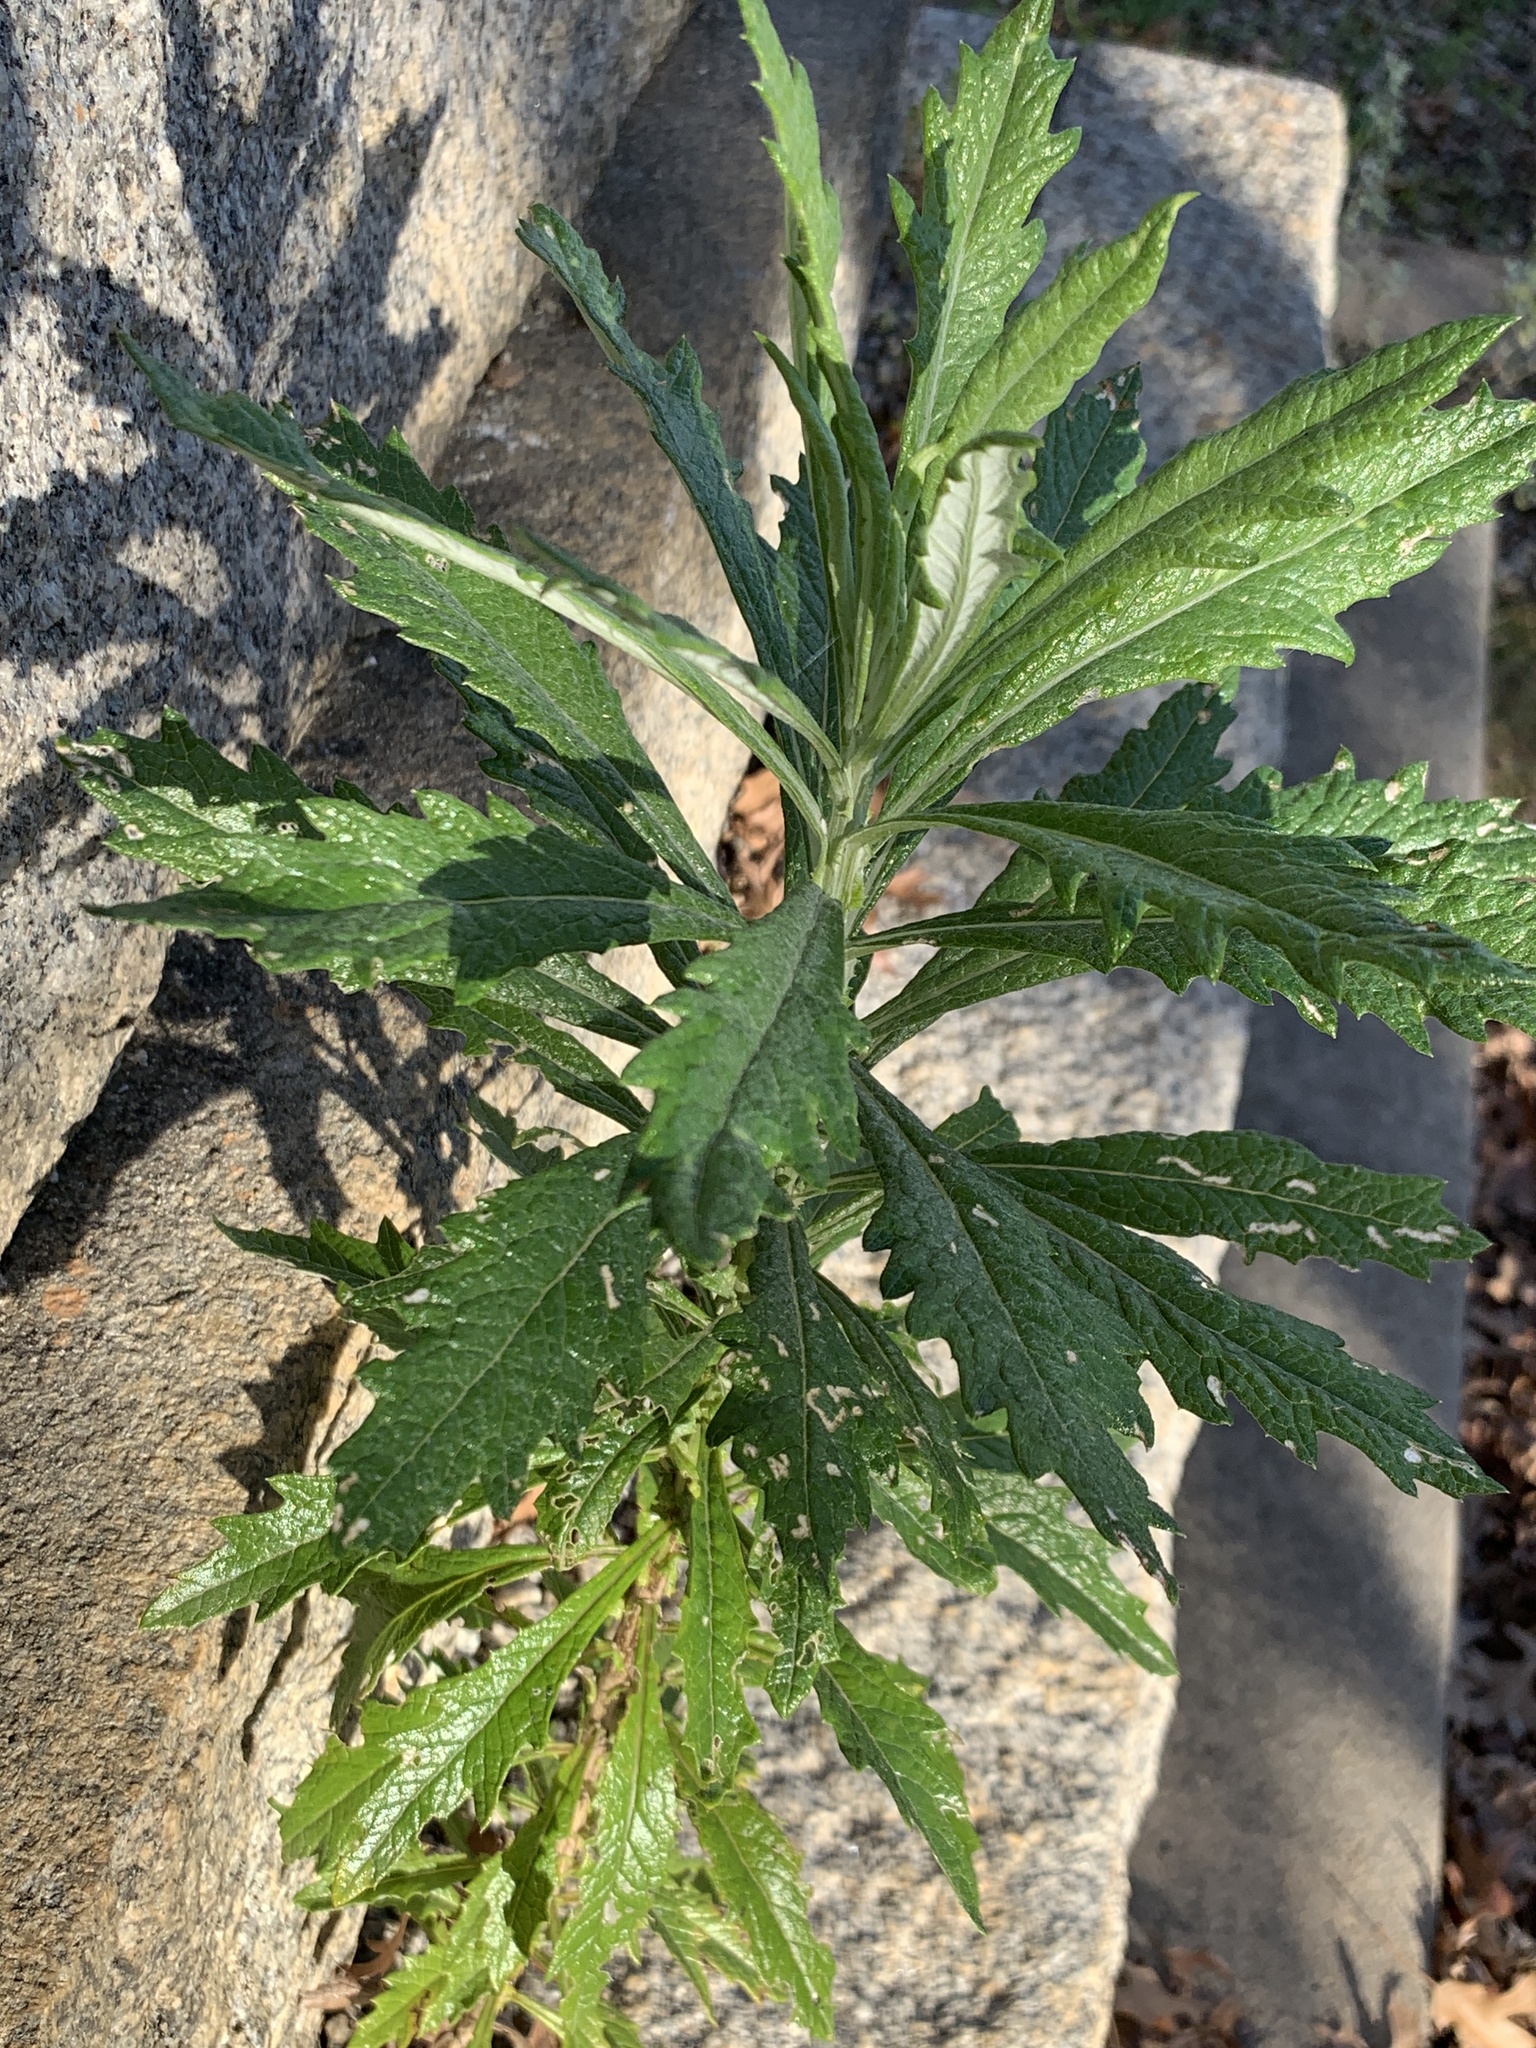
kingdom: Plantae
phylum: Tracheophyta
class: Magnoliopsida
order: Asterales
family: Asteraceae
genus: Senecio
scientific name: Senecio pterophorus
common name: Shoddy ragwort
